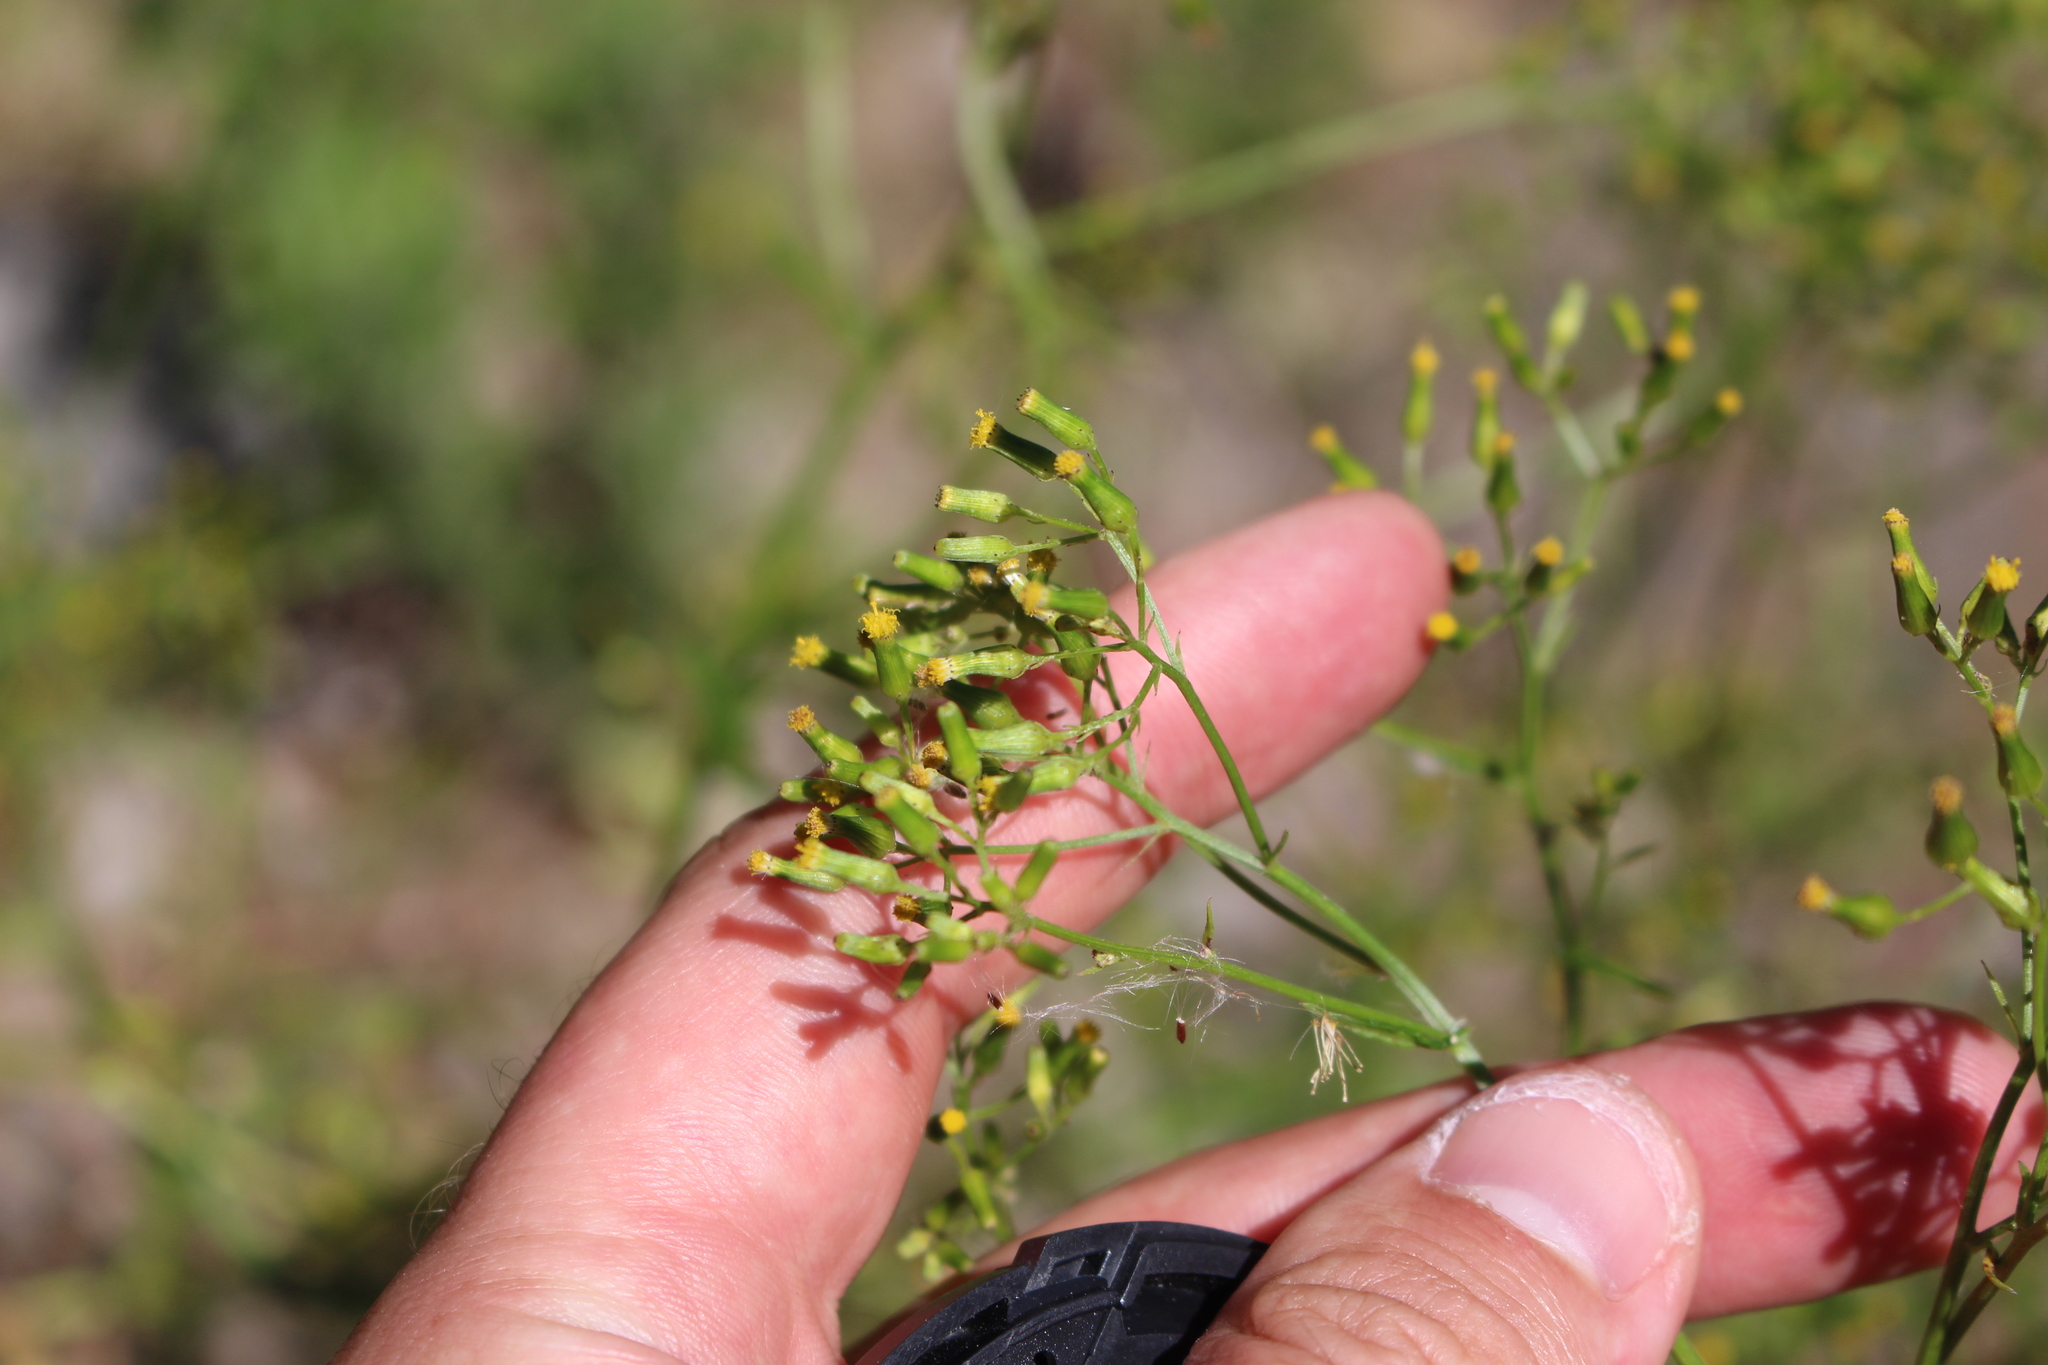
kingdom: Plantae
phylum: Tracheophyta
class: Magnoliopsida
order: Asterales
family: Asteraceae
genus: Senecio
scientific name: Senecio hispidulus
